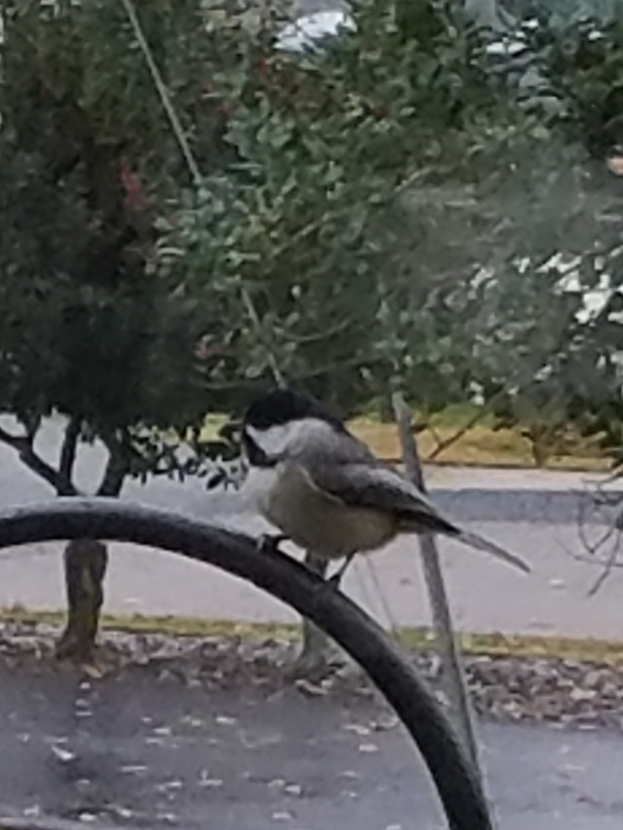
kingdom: Animalia
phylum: Chordata
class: Aves
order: Passeriformes
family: Paridae
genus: Poecile
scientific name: Poecile carolinensis
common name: Carolina chickadee
